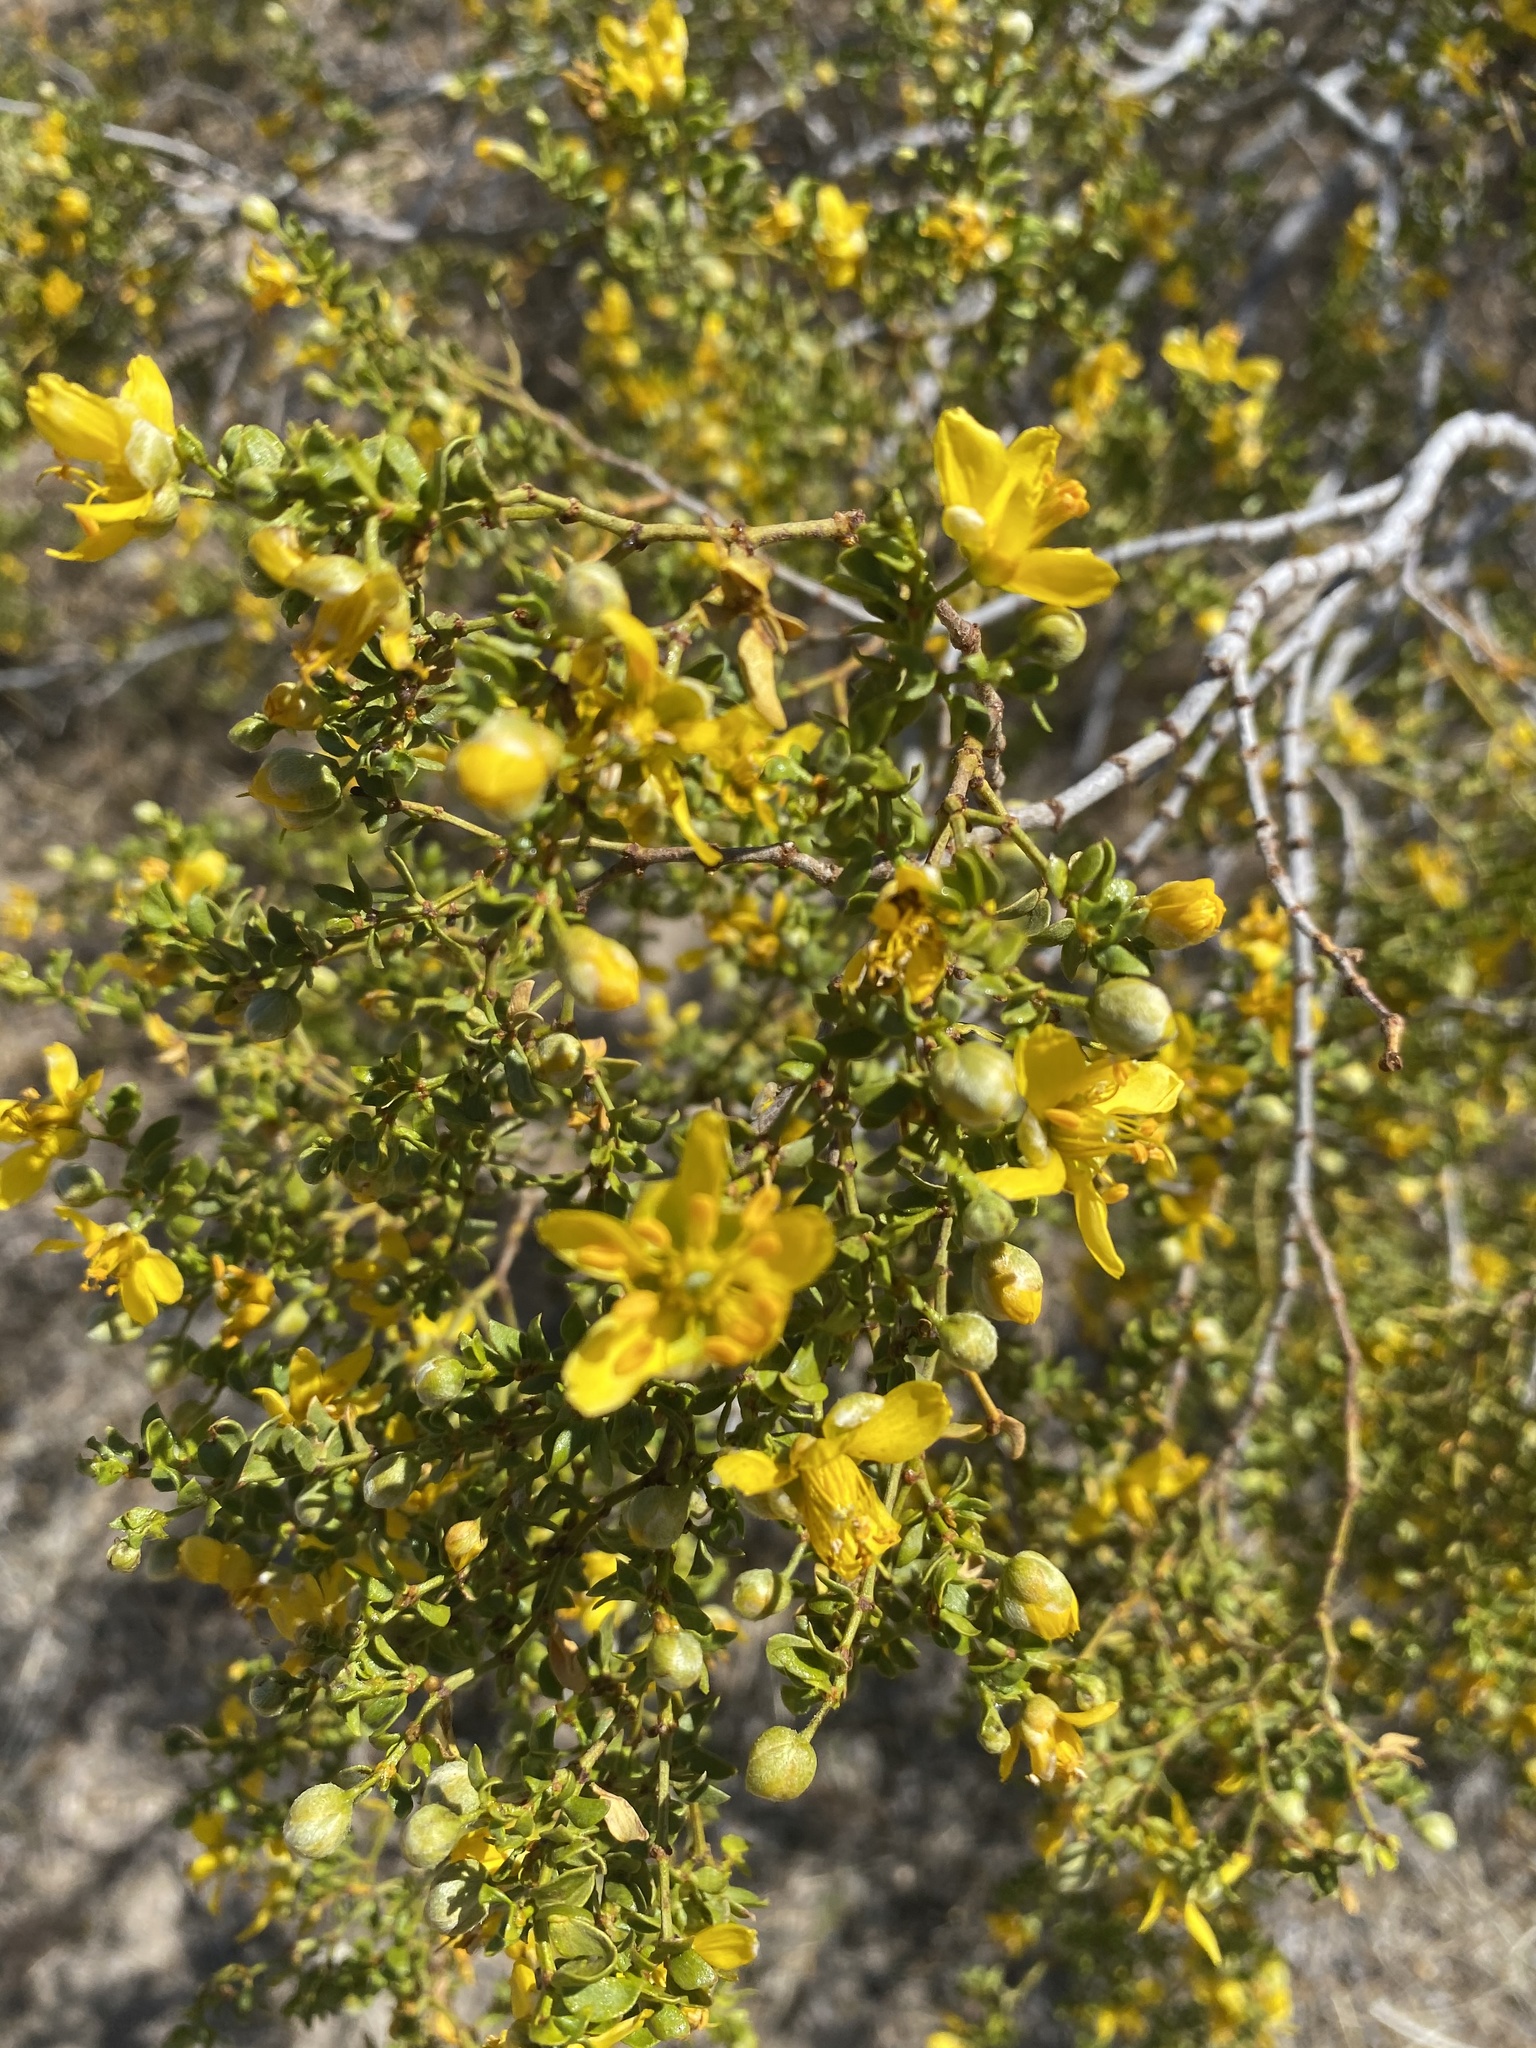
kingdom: Plantae
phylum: Tracheophyta
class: Magnoliopsida
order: Zygophyllales
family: Zygophyllaceae
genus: Larrea
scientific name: Larrea tridentata
